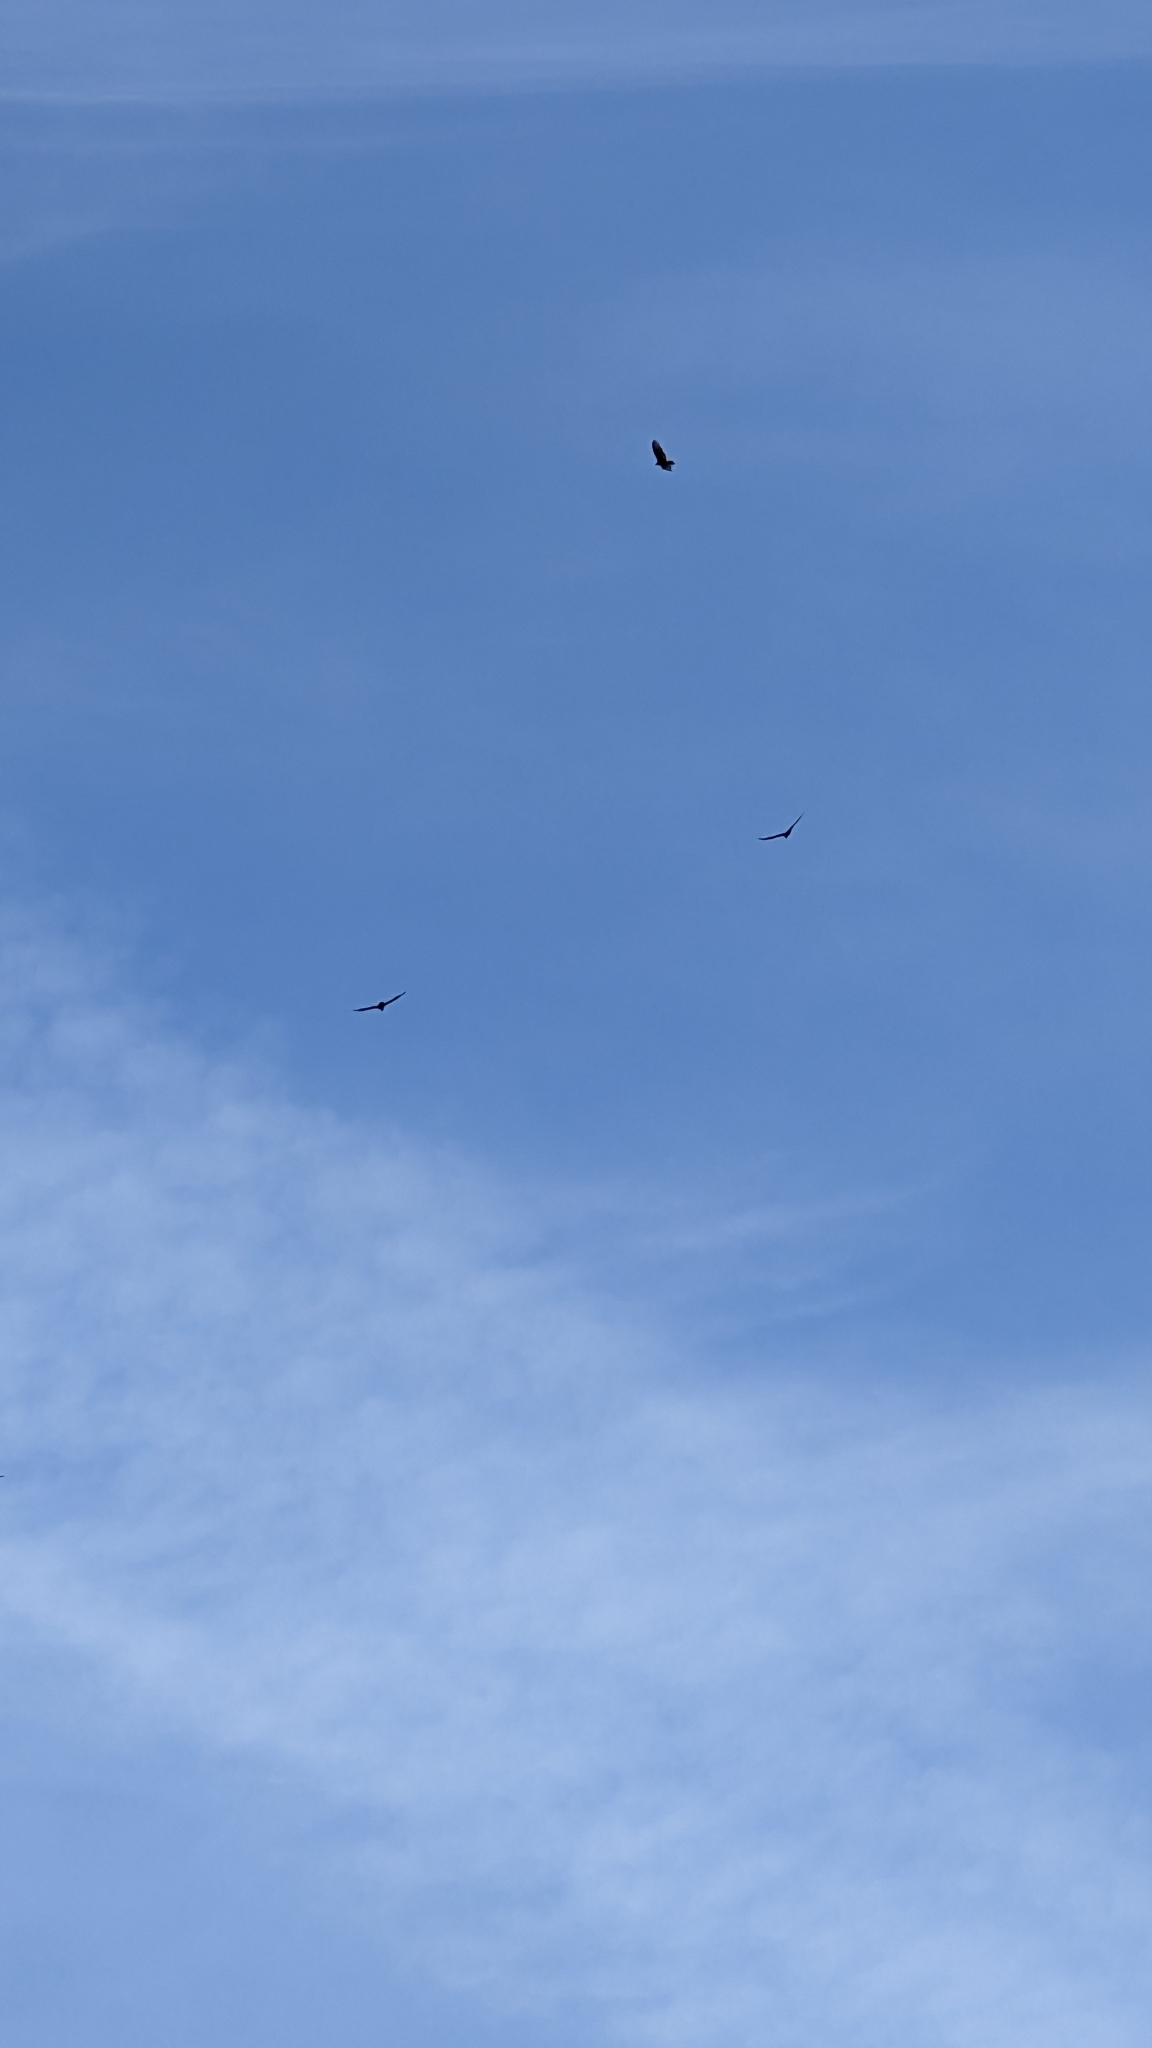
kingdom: Animalia
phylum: Chordata
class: Aves
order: Accipitriformes
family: Cathartidae
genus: Cathartes
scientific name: Cathartes aura
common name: Turkey vulture
